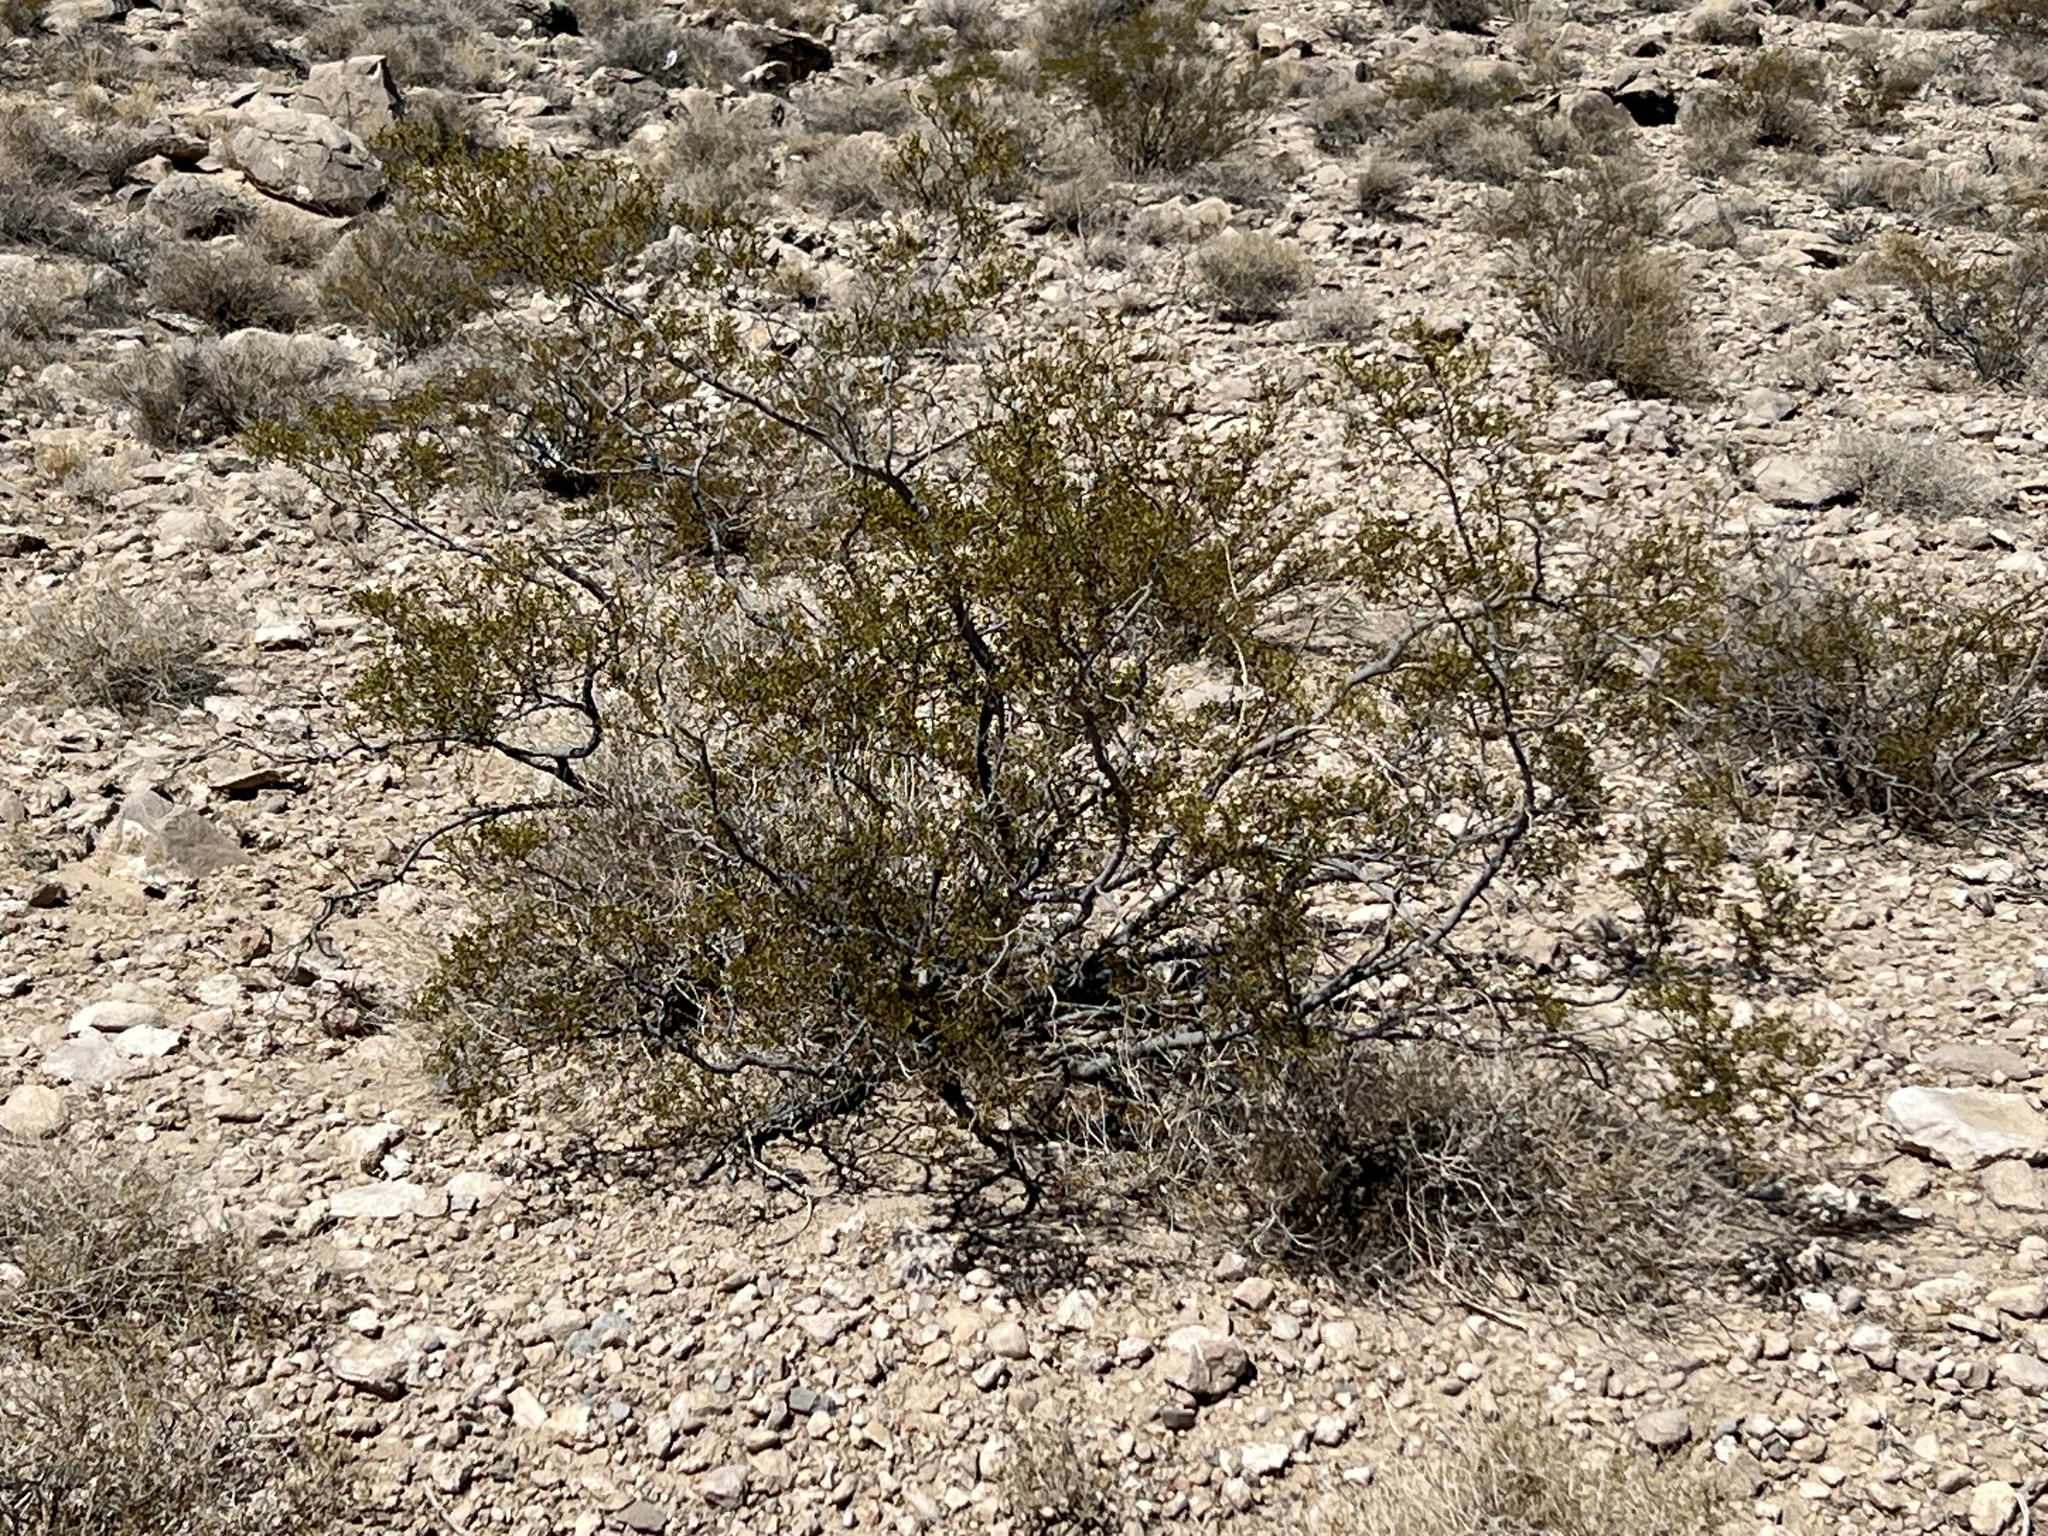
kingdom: Plantae
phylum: Tracheophyta
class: Magnoliopsida
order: Zygophyllales
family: Zygophyllaceae
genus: Larrea
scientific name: Larrea tridentata
